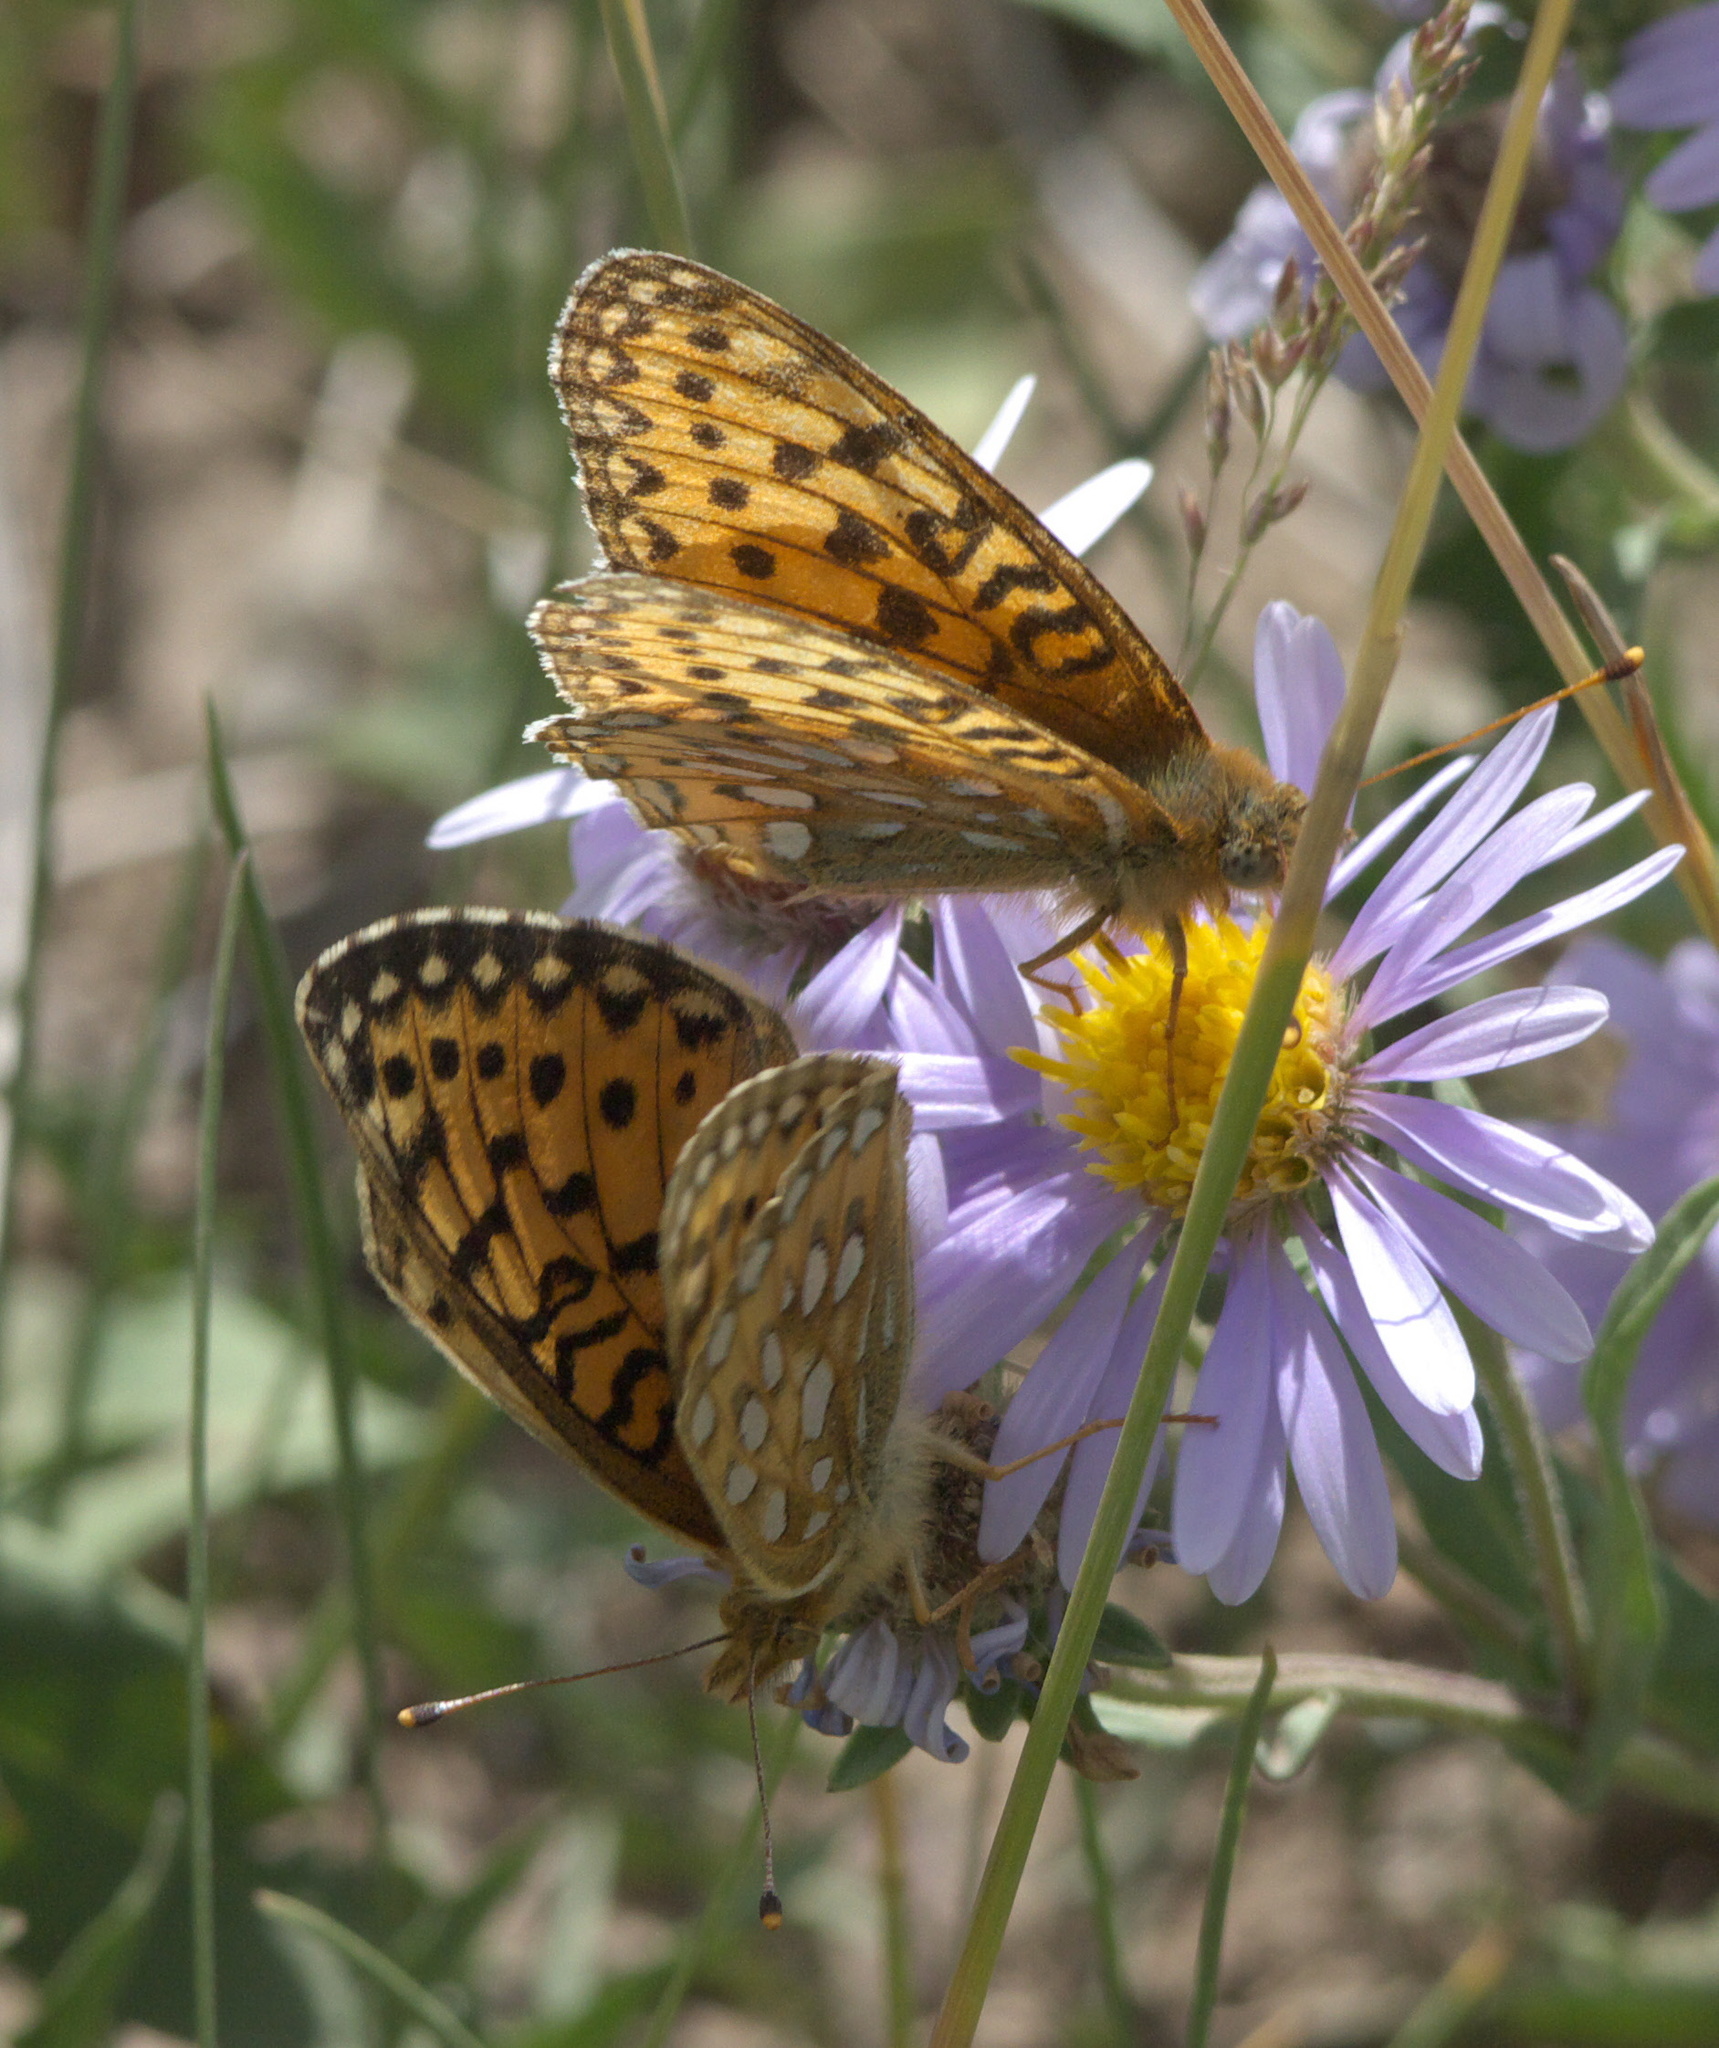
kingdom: Animalia
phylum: Arthropoda
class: Insecta
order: Lepidoptera
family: Nymphalidae
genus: Speyeria
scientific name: Speyeria mormonia
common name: Mormon fritillary
